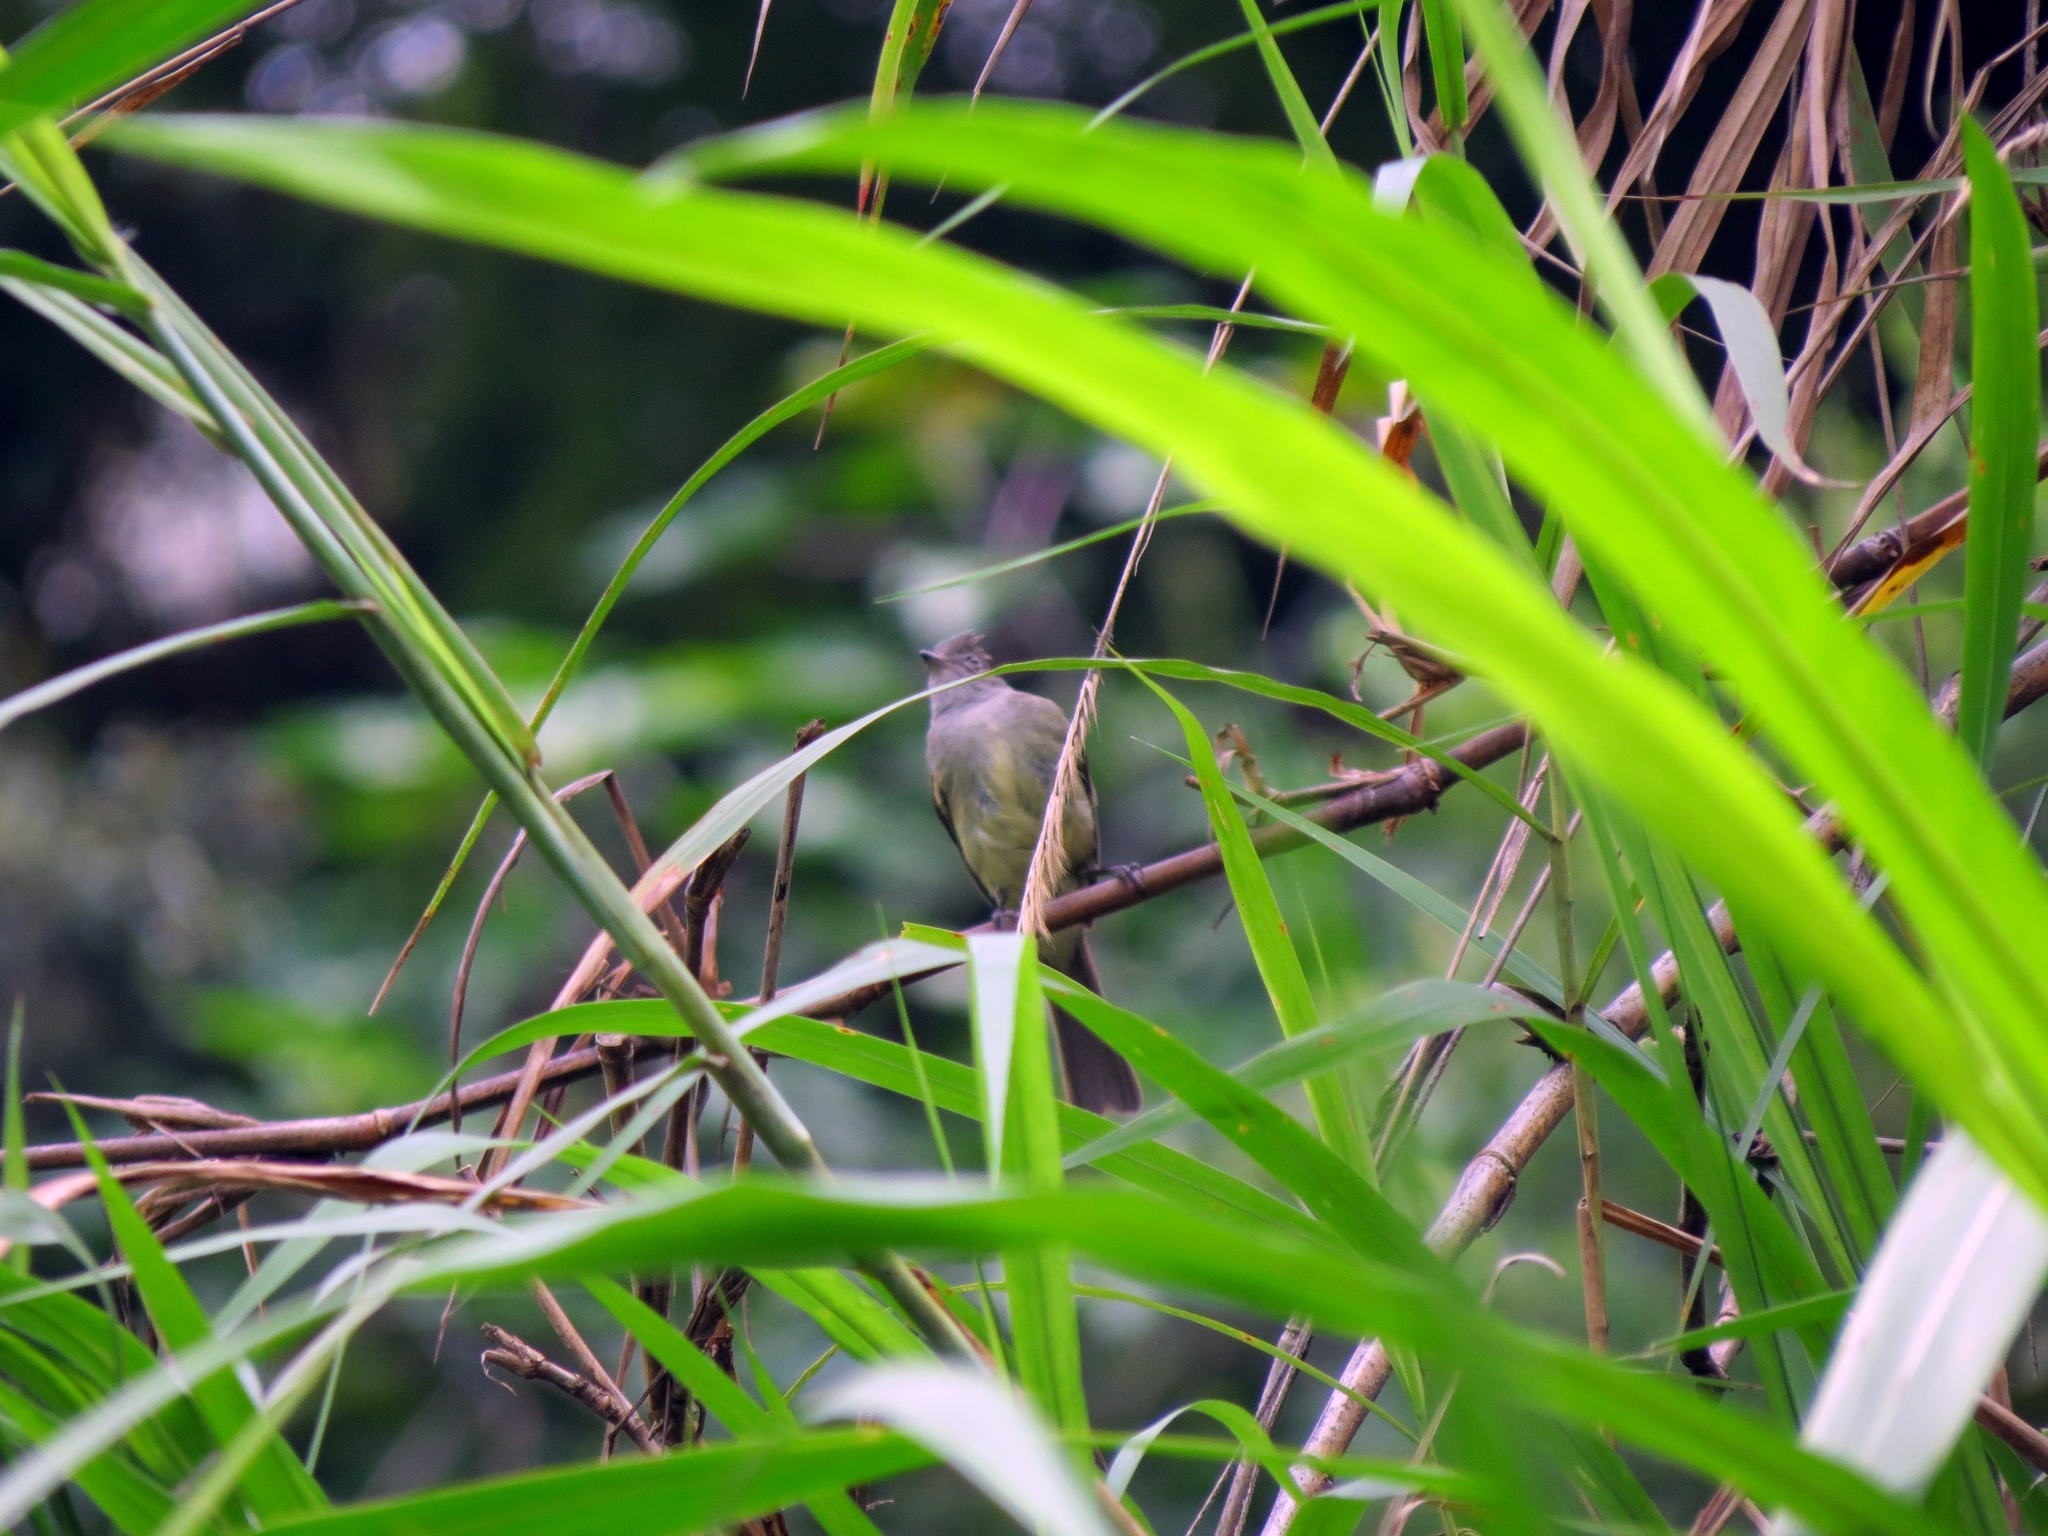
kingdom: Animalia
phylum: Chordata
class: Aves
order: Passeriformes
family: Tyrannidae
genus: Elaenia
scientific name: Elaenia flavogaster
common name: Yellow-bellied elaenia
